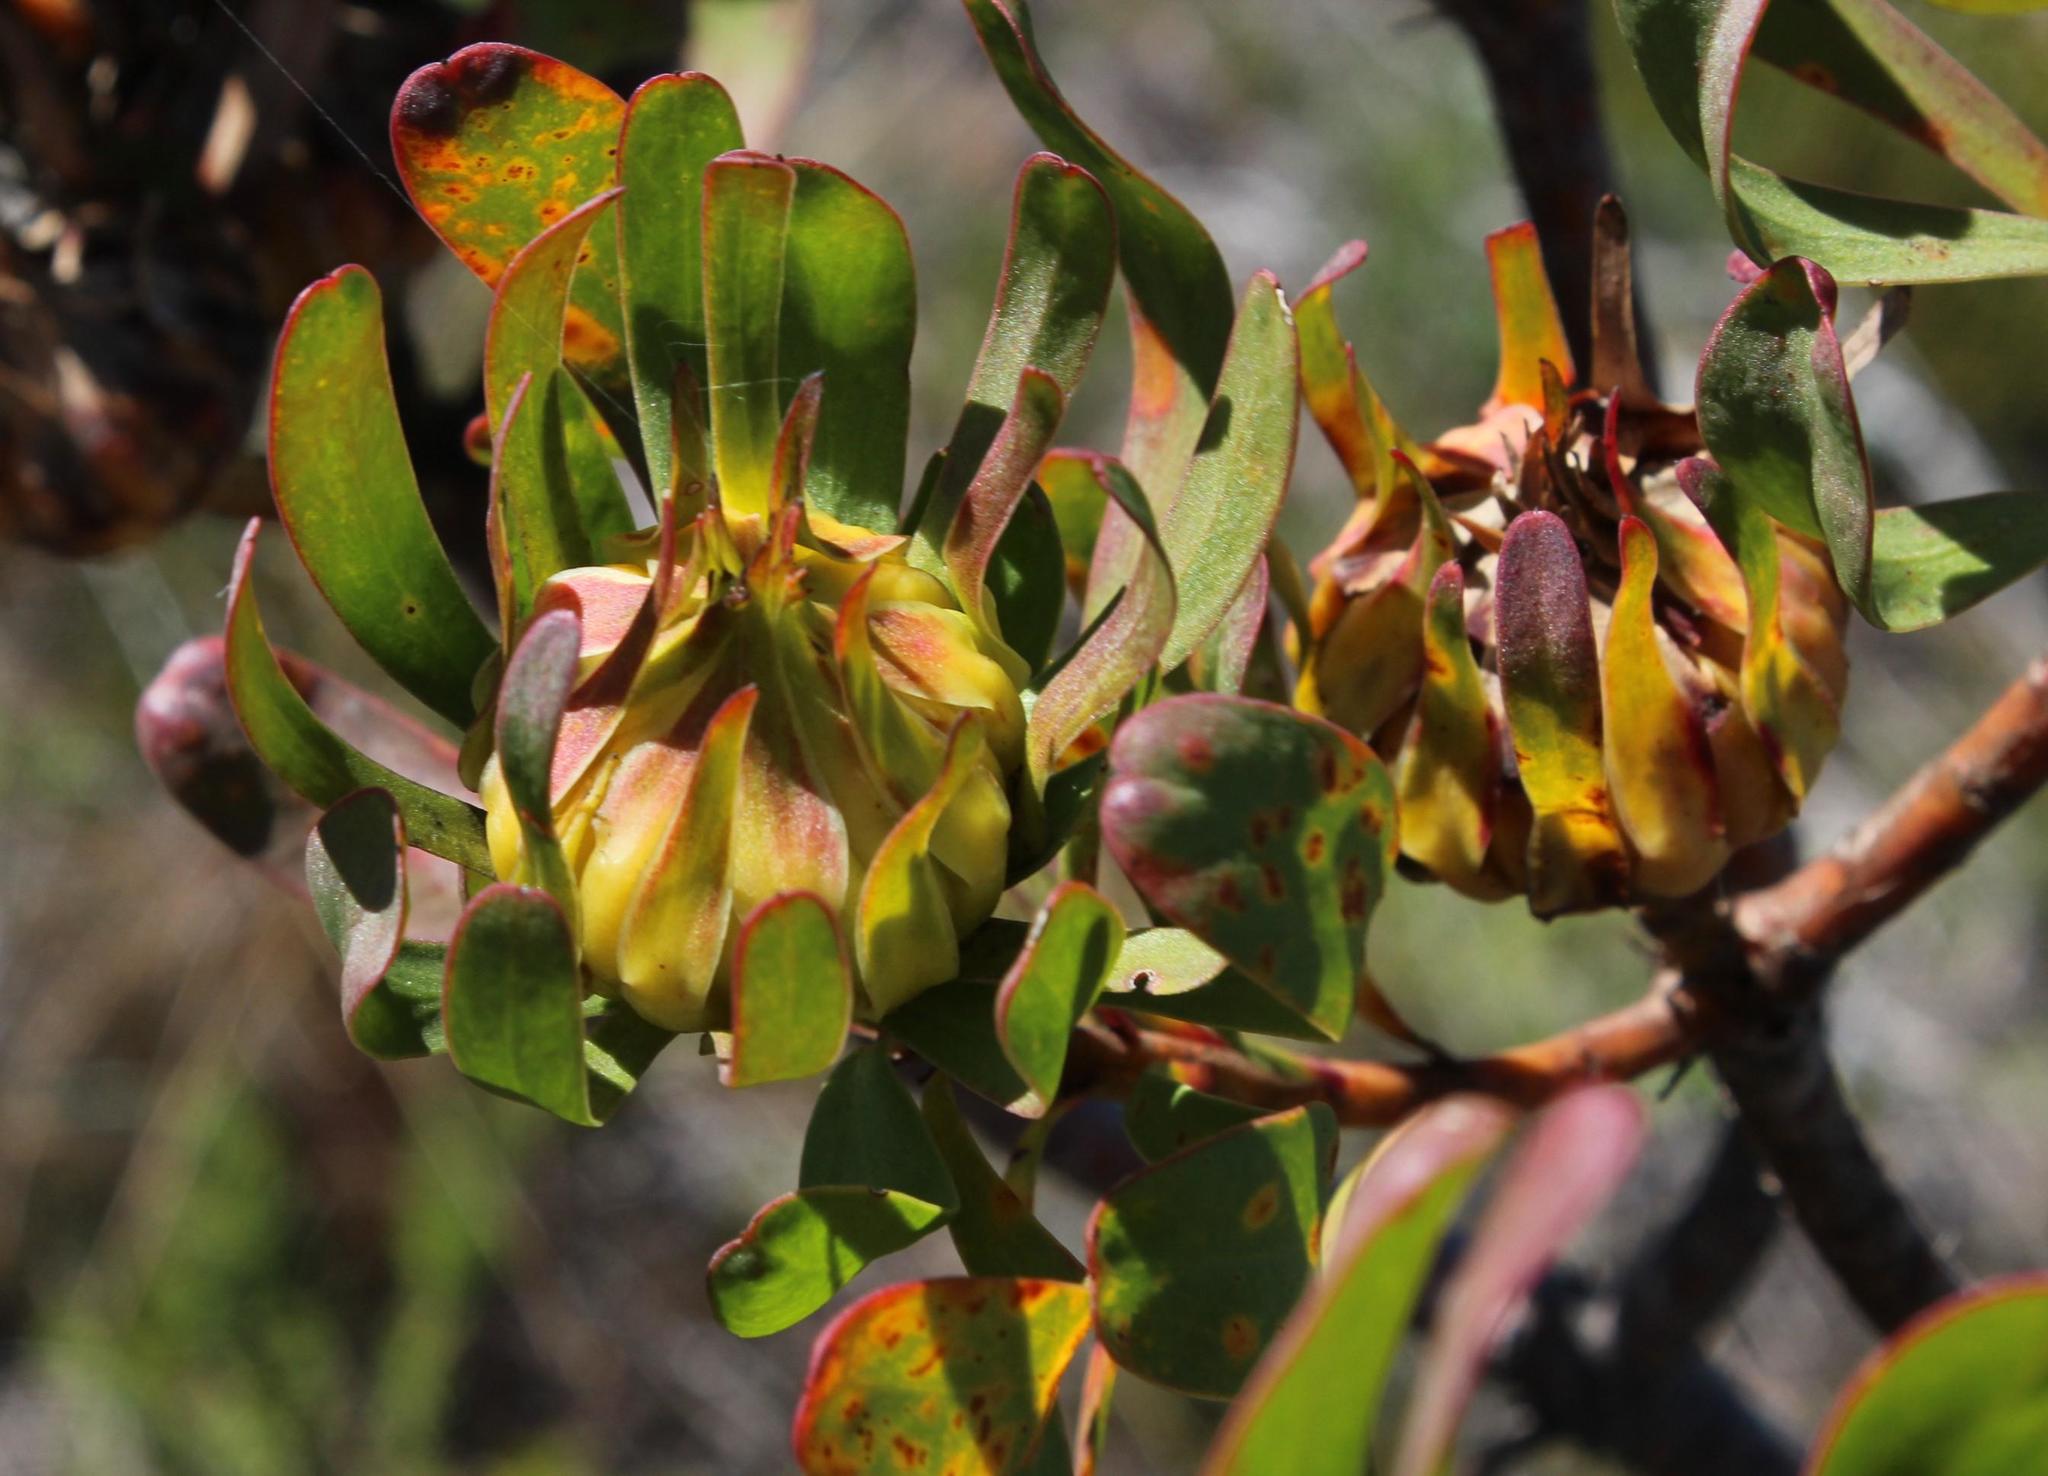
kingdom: Plantae
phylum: Tracheophyta
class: Magnoliopsida
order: Proteales
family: Proteaceae
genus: Aulax
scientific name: Aulax umbellata
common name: Broad-leaf featherbush
